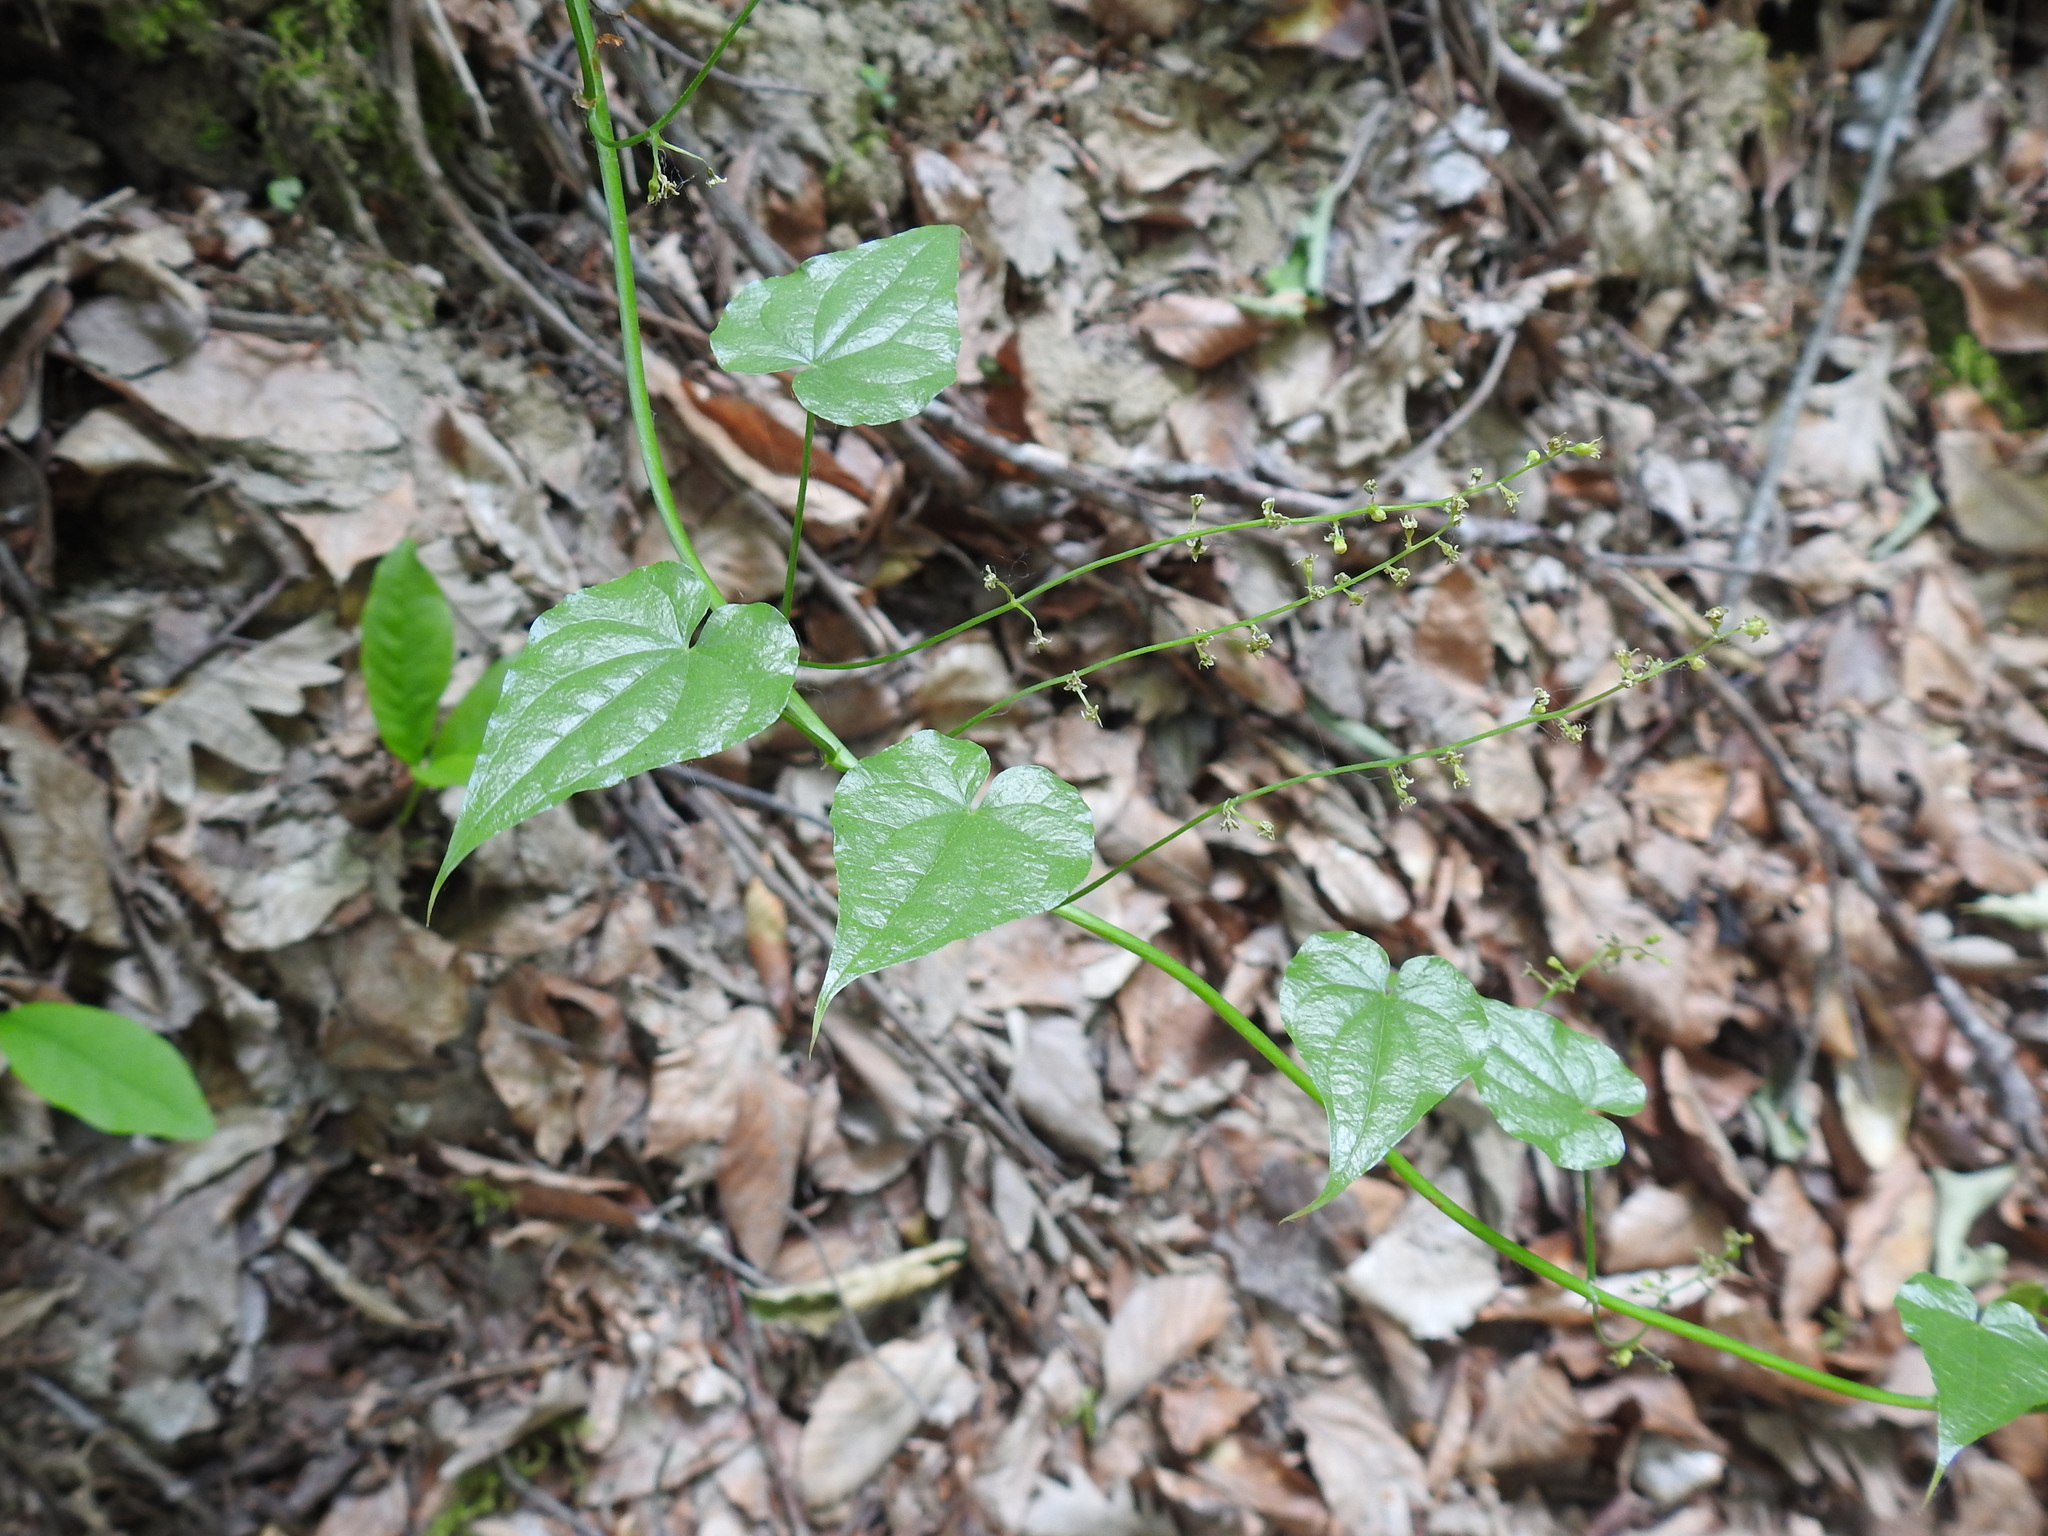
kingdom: Plantae
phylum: Tracheophyta
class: Liliopsida
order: Dioscoreales
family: Dioscoreaceae
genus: Dioscorea
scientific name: Dioscorea communis
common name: Black-bindweed
